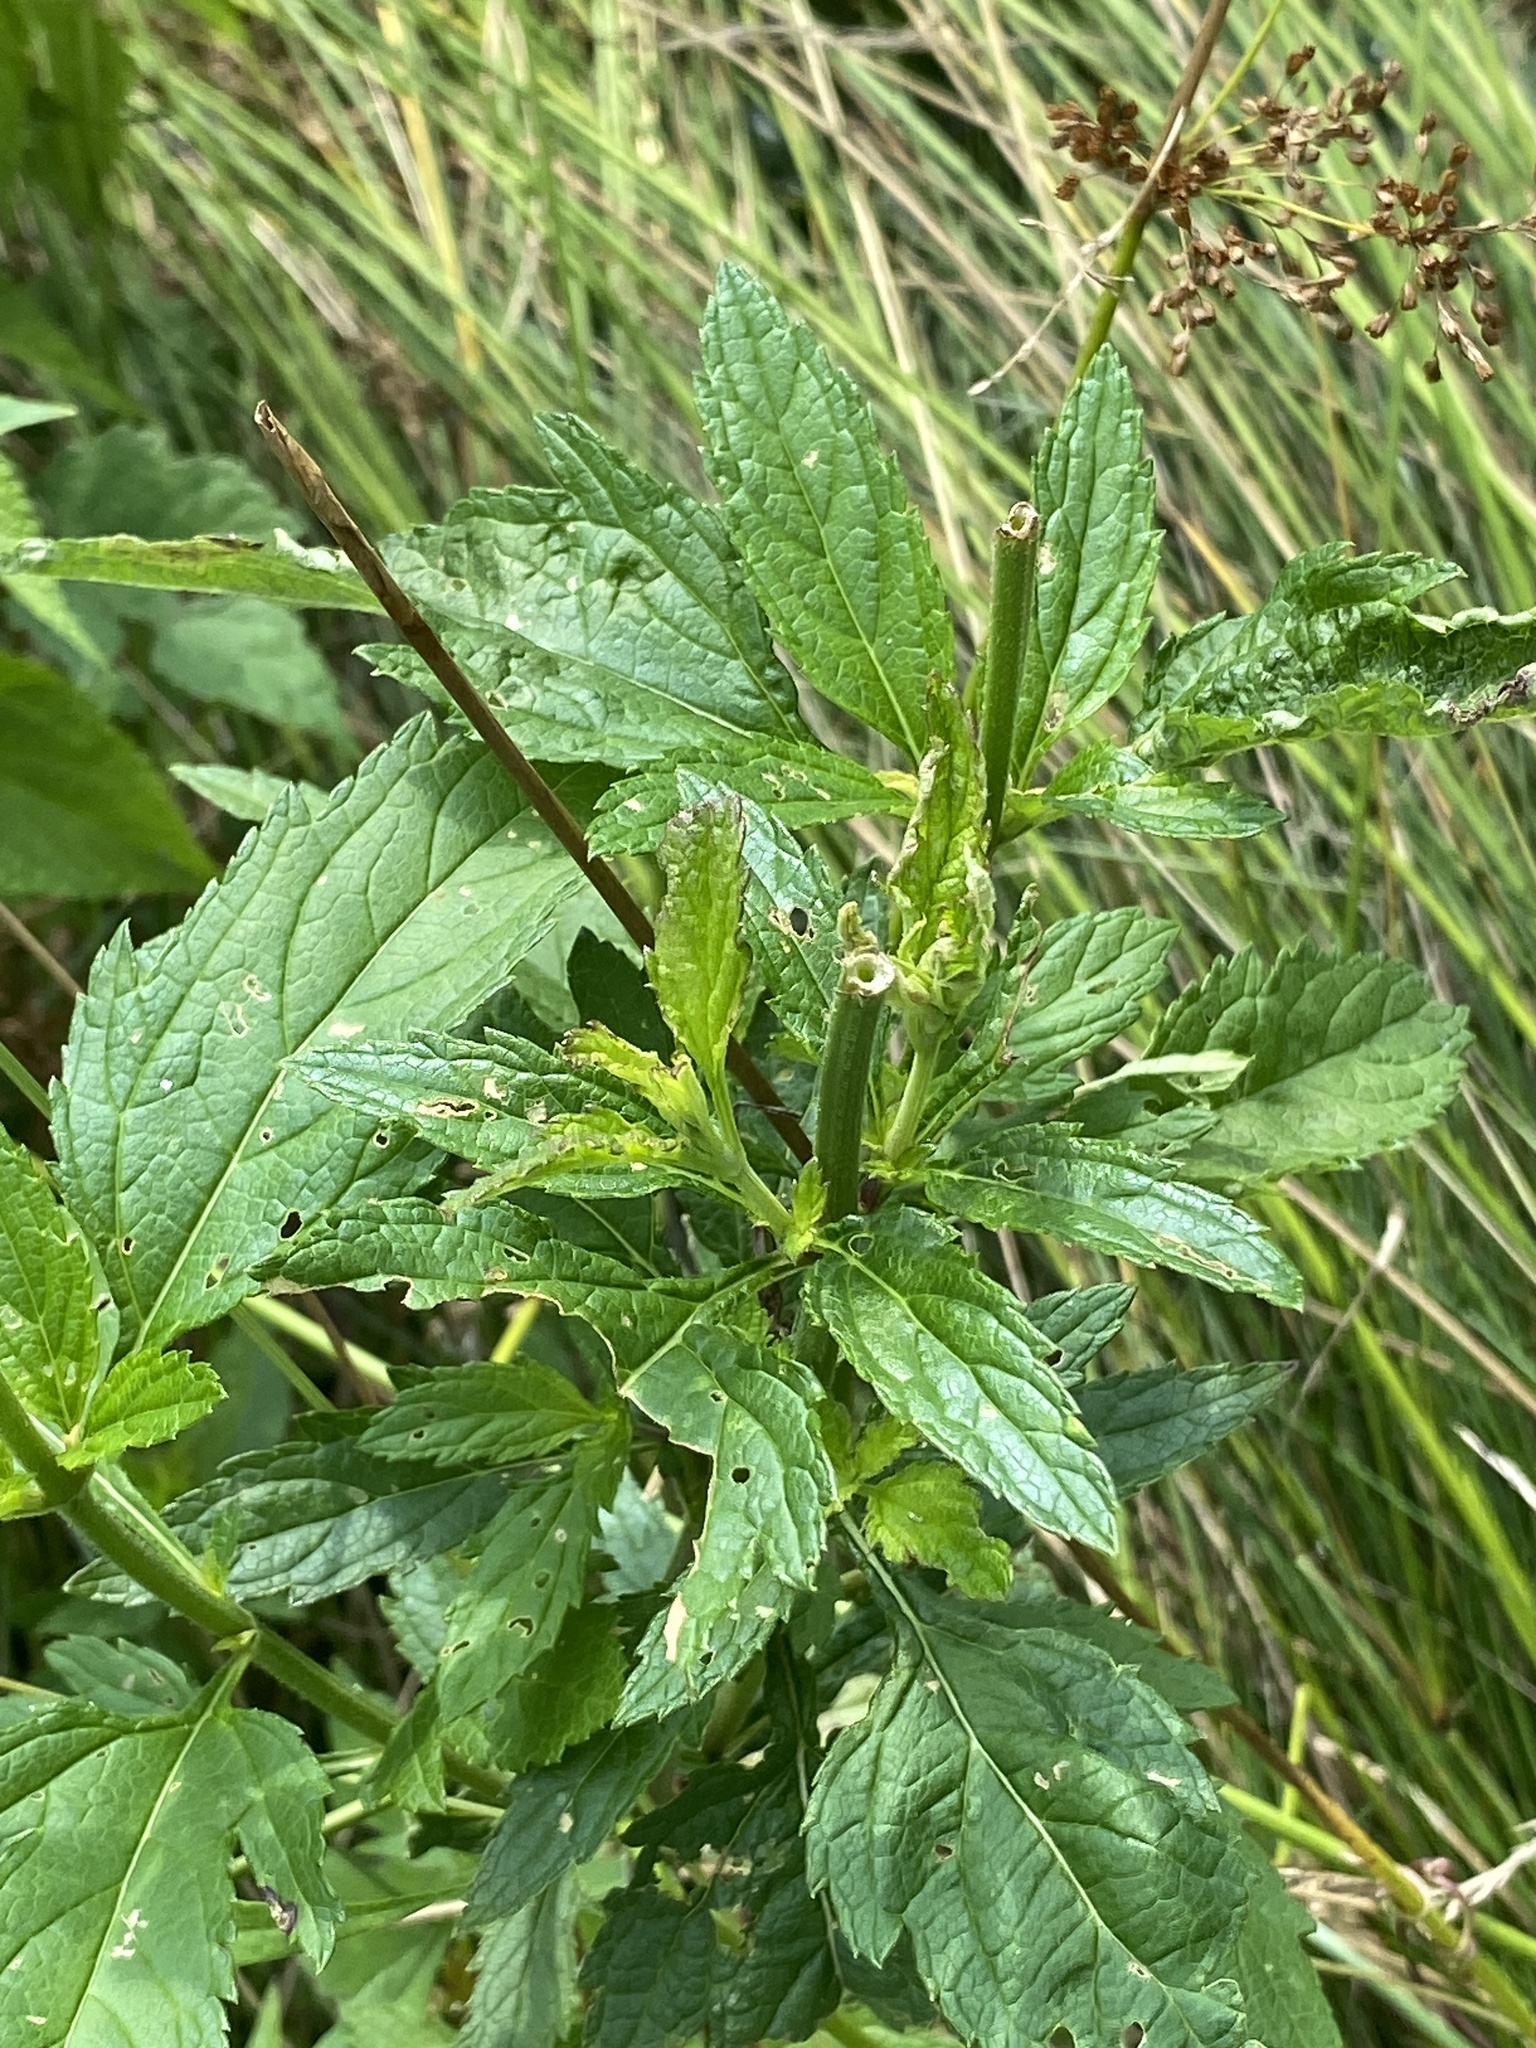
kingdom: Plantae
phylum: Tracheophyta
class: Magnoliopsida
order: Lamiales
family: Verbenaceae
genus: Verbena
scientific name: Verbena hastata
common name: American blue vervain
